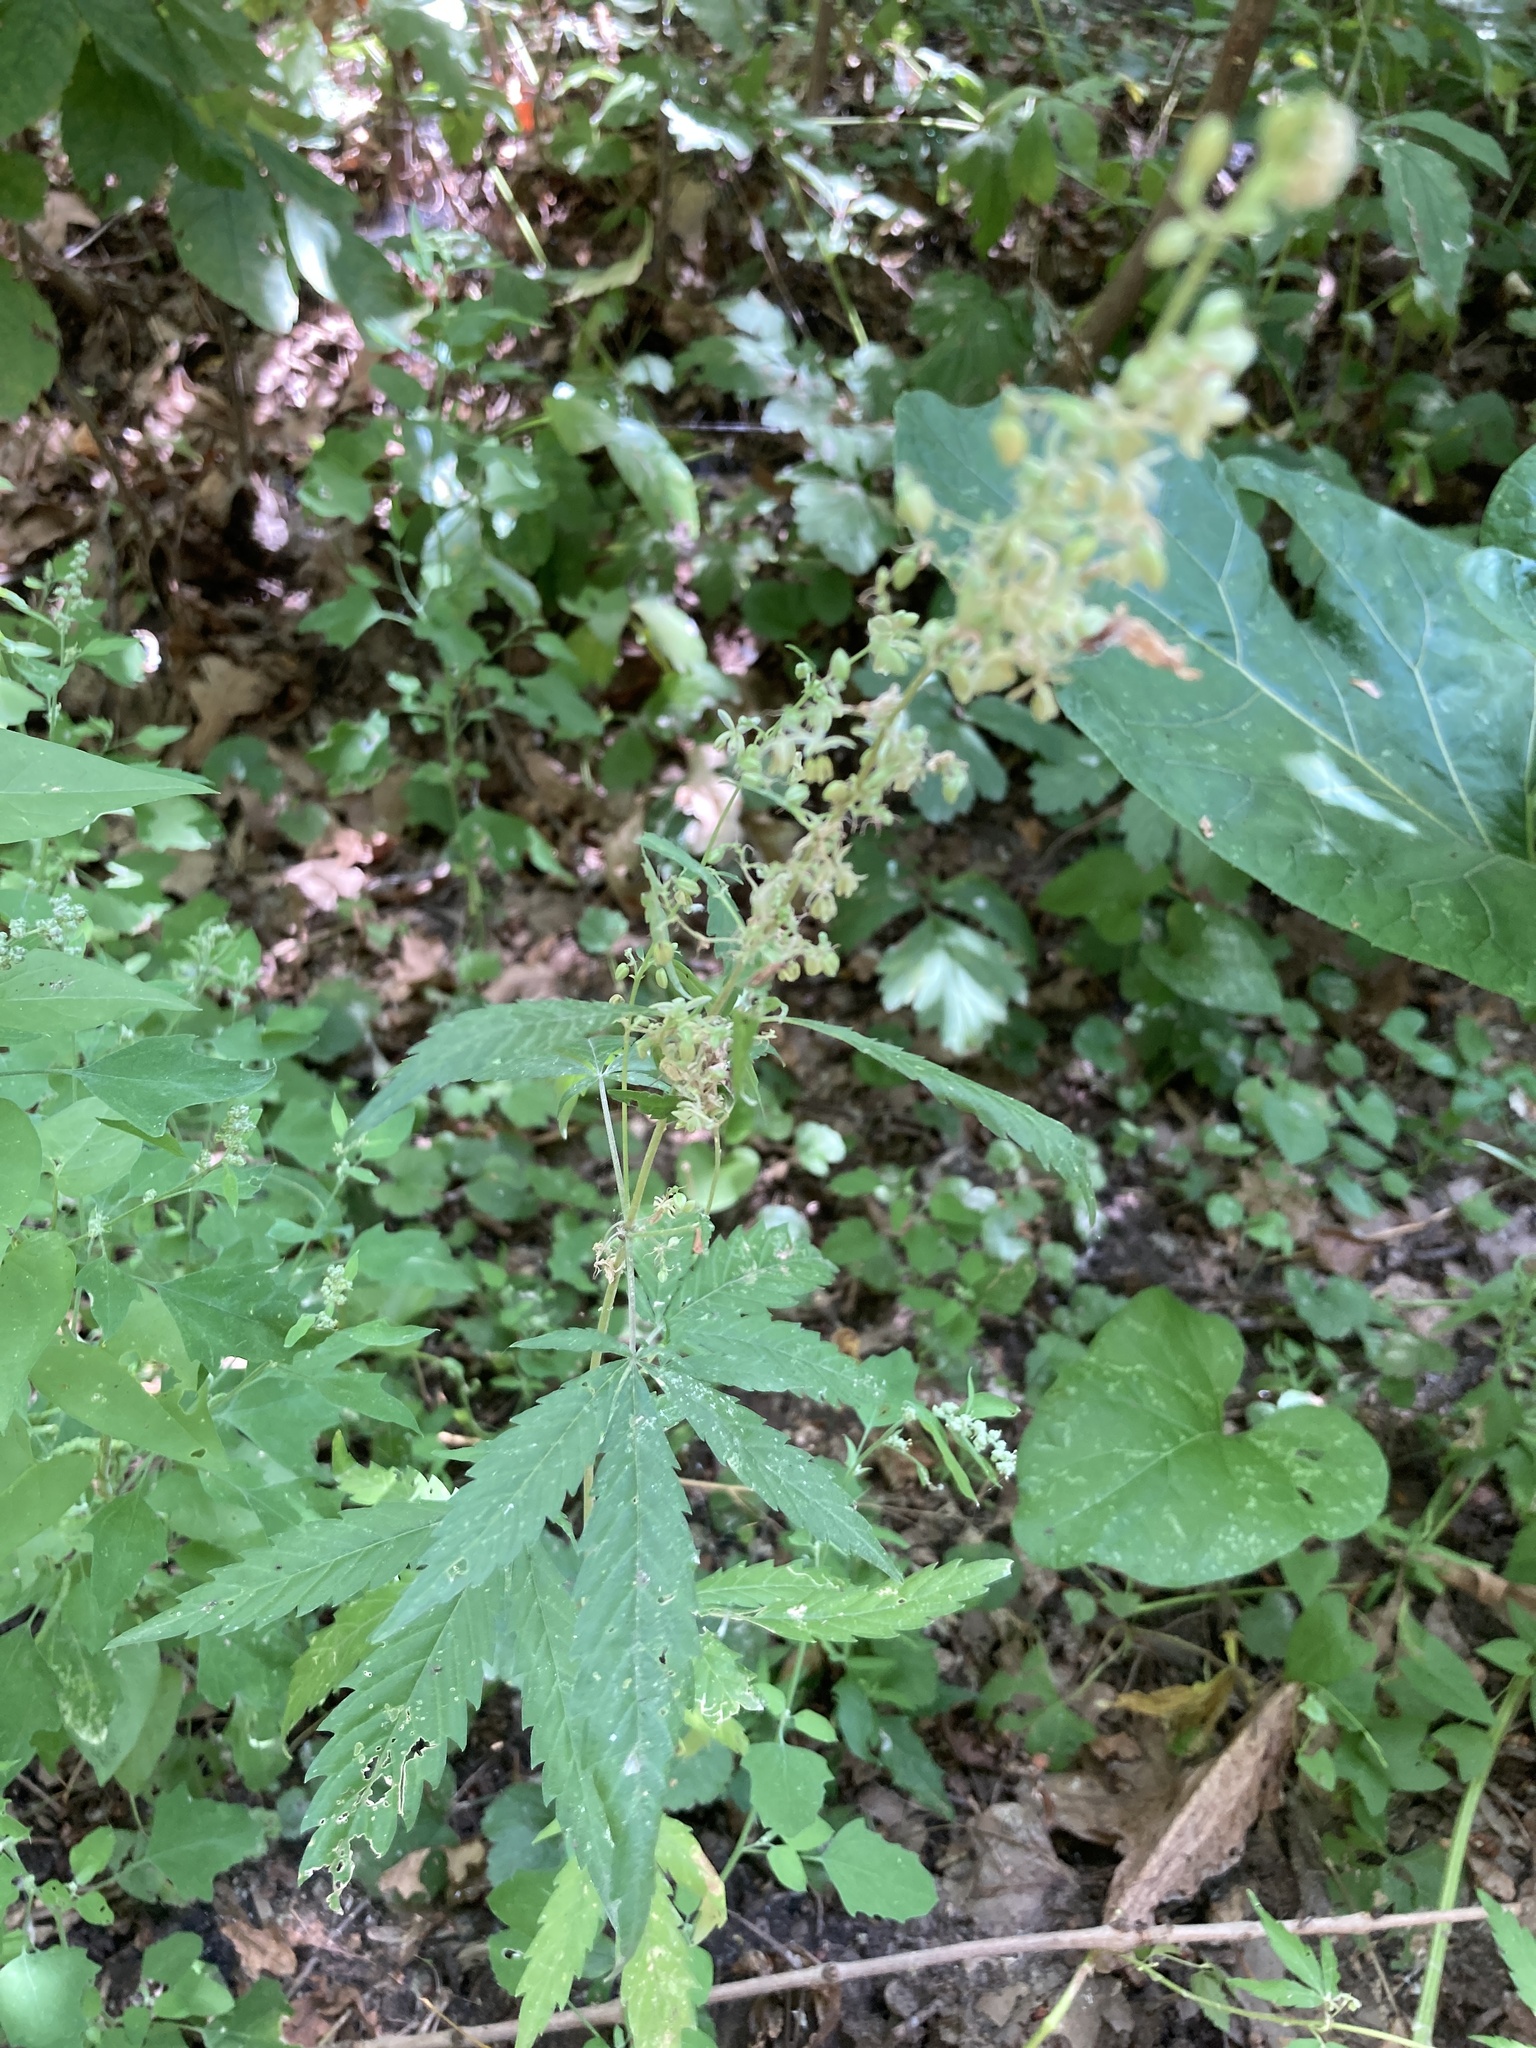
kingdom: Plantae
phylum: Tracheophyta
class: Magnoliopsida
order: Rosales
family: Cannabaceae
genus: Cannabis
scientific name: Cannabis sativa
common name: Hemp
